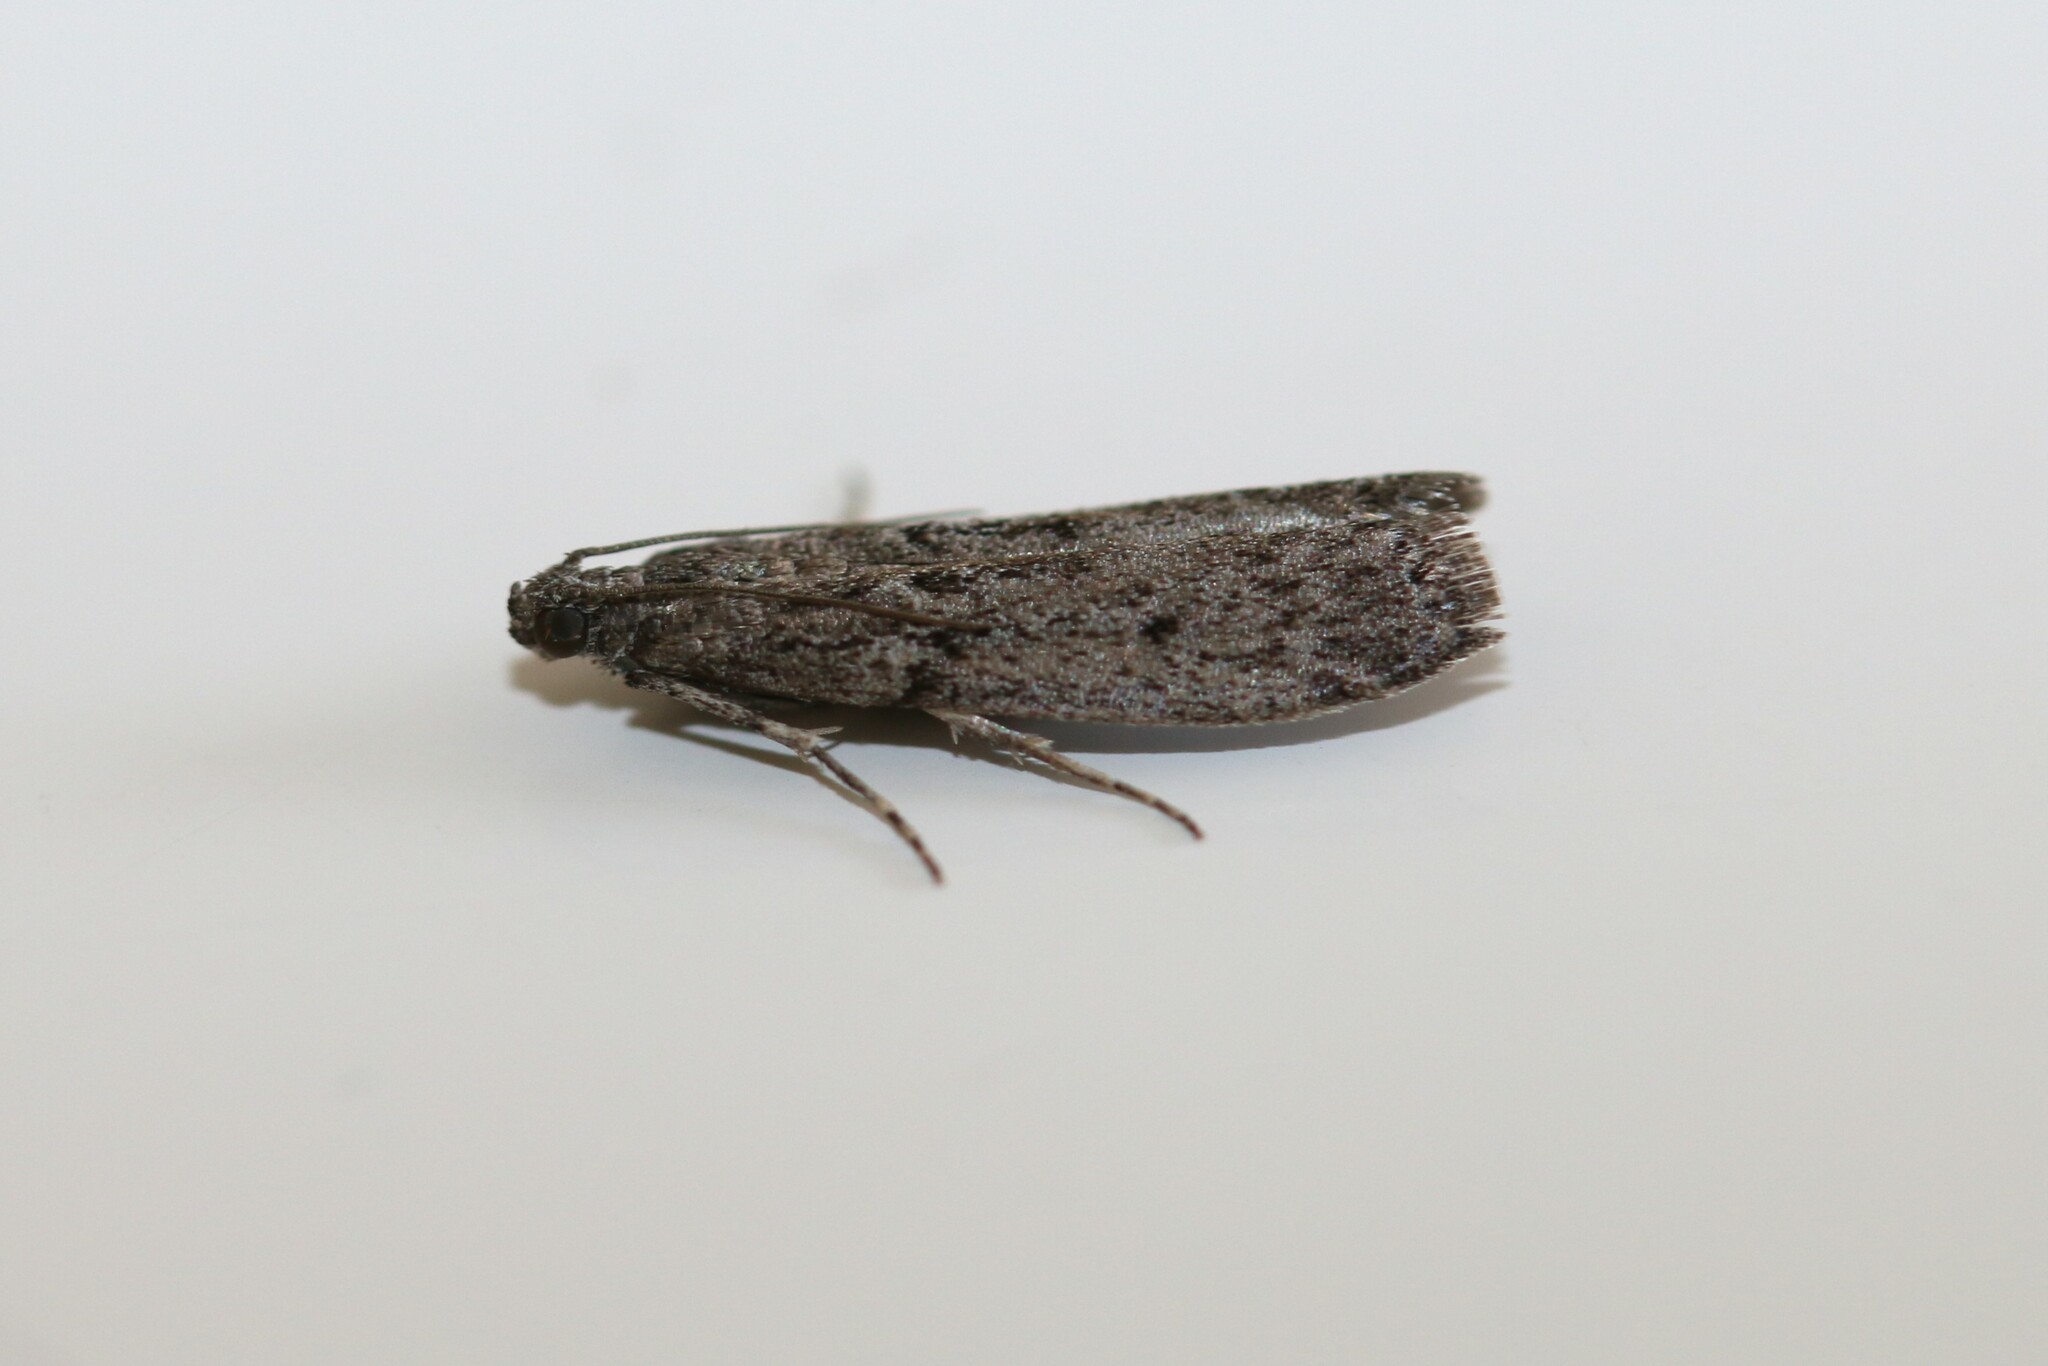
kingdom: Animalia
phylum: Arthropoda
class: Insecta
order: Lepidoptera
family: Pyralidae
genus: Ephestia
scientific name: Ephestia kuehniella
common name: Mediterranean flour moth
